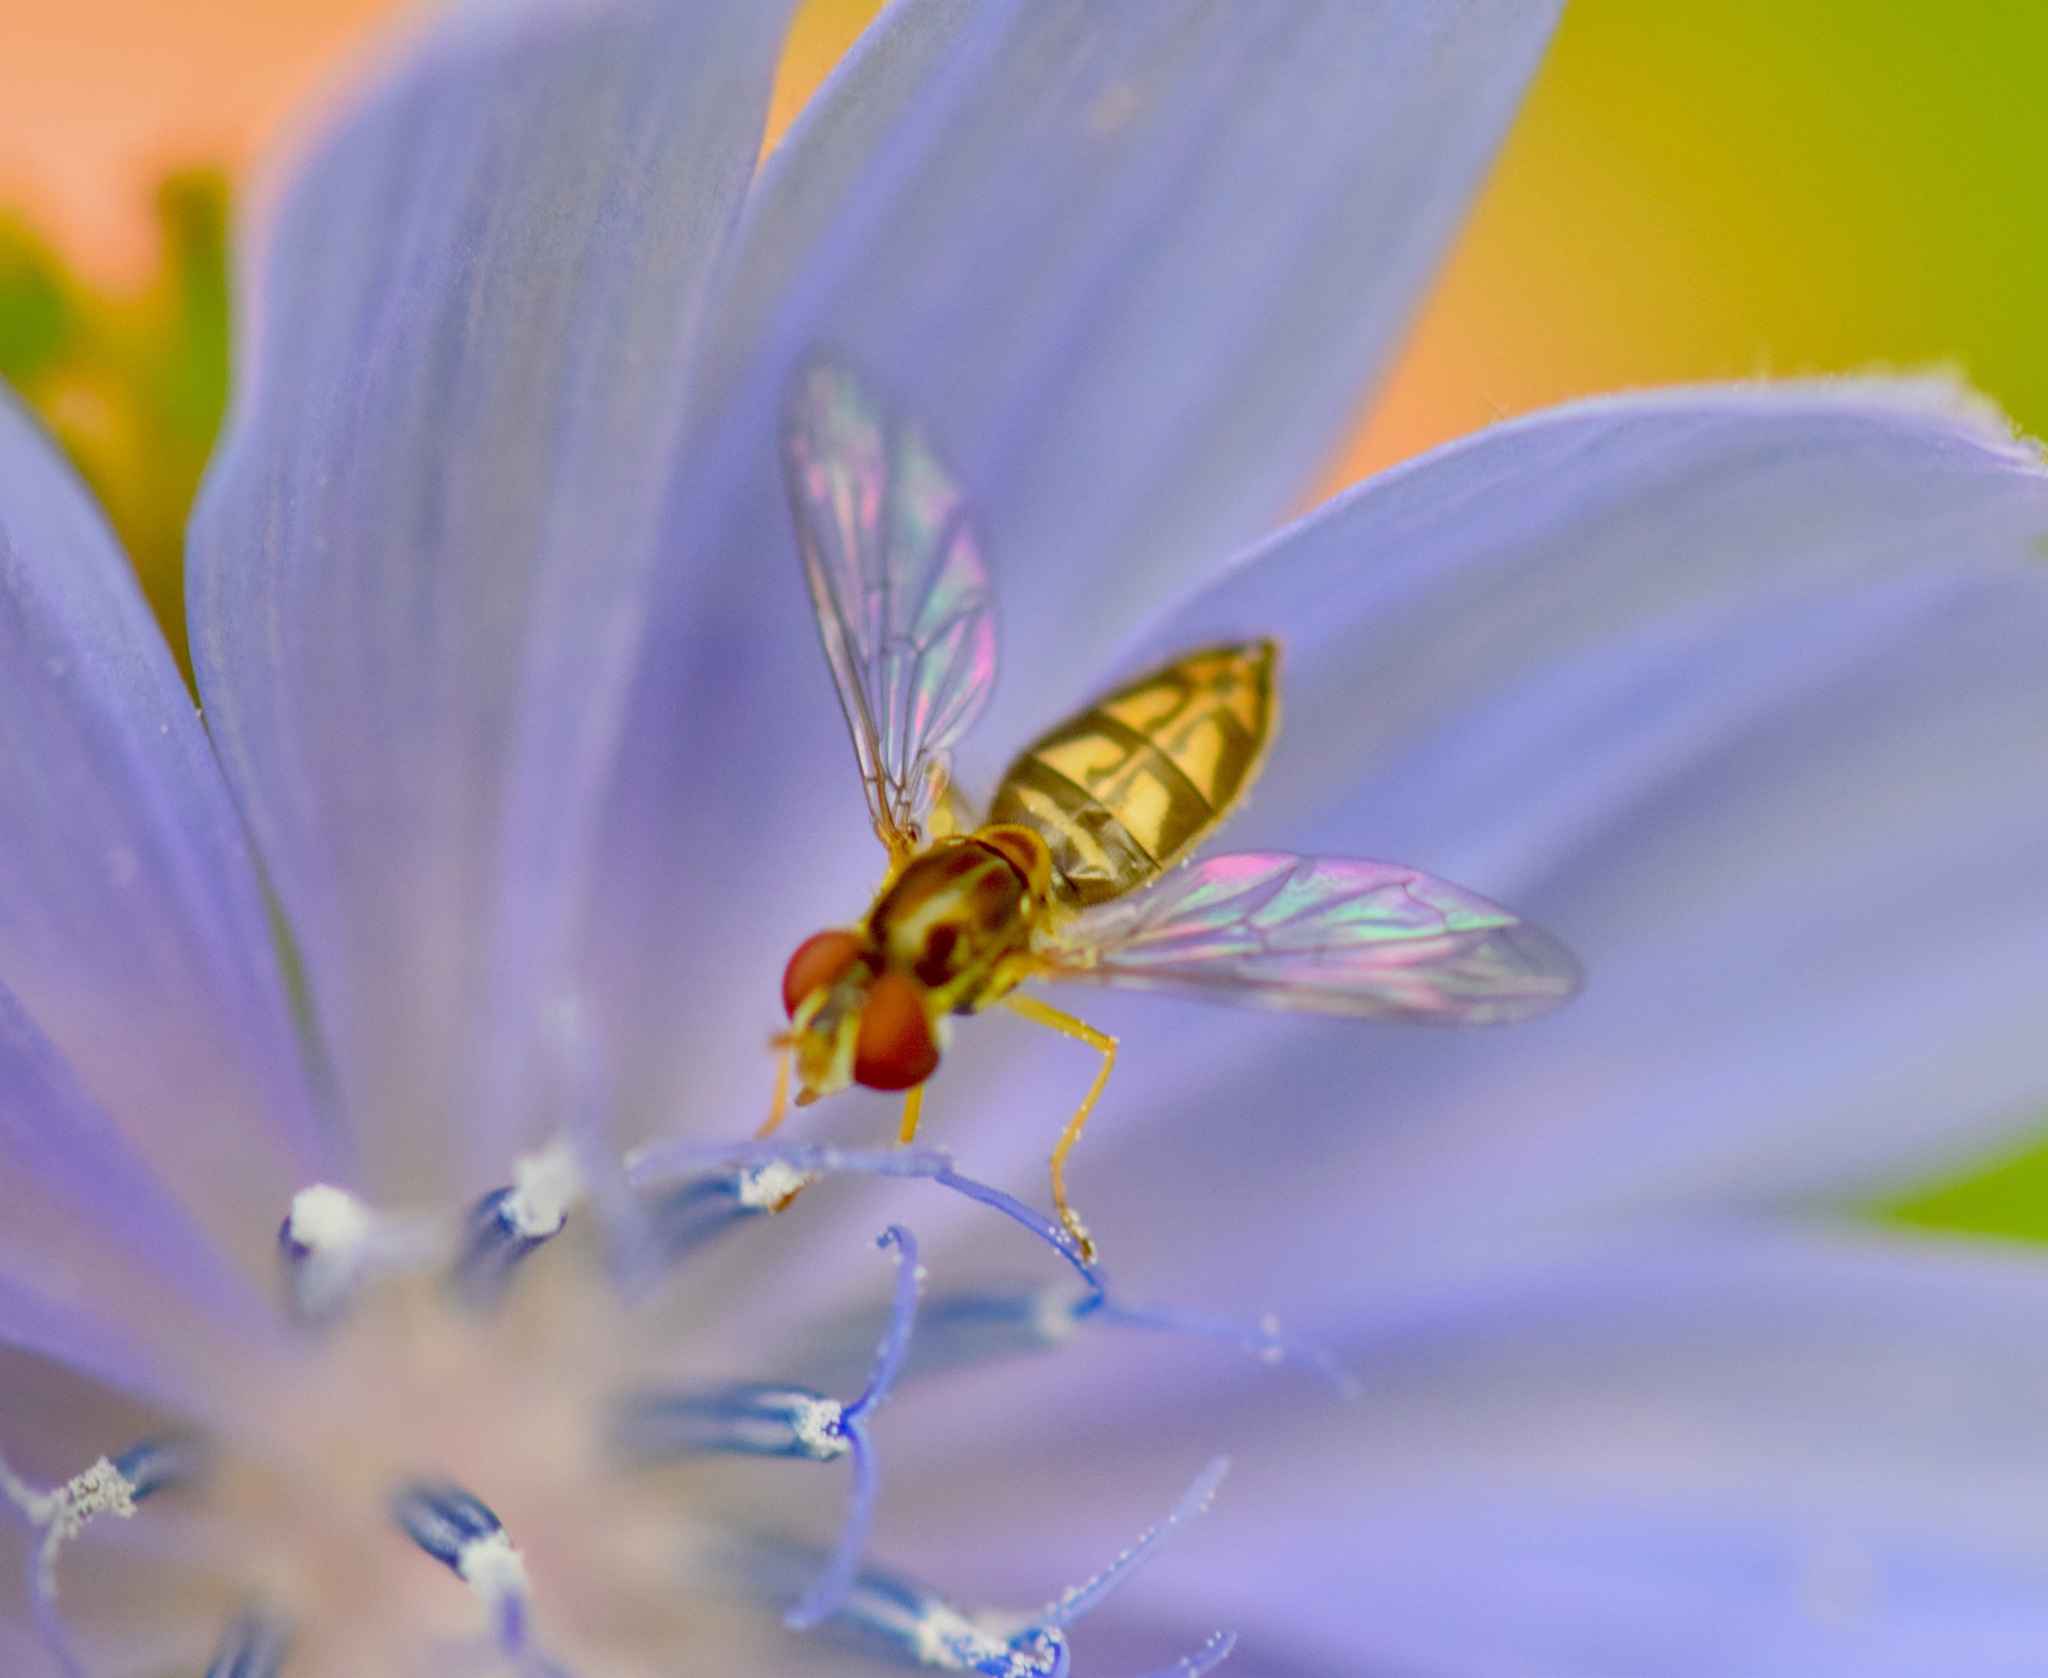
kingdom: Animalia
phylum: Arthropoda
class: Insecta
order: Diptera
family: Syrphidae
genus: Toxomerus
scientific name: Toxomerus marginatus
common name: Syrphid fly
